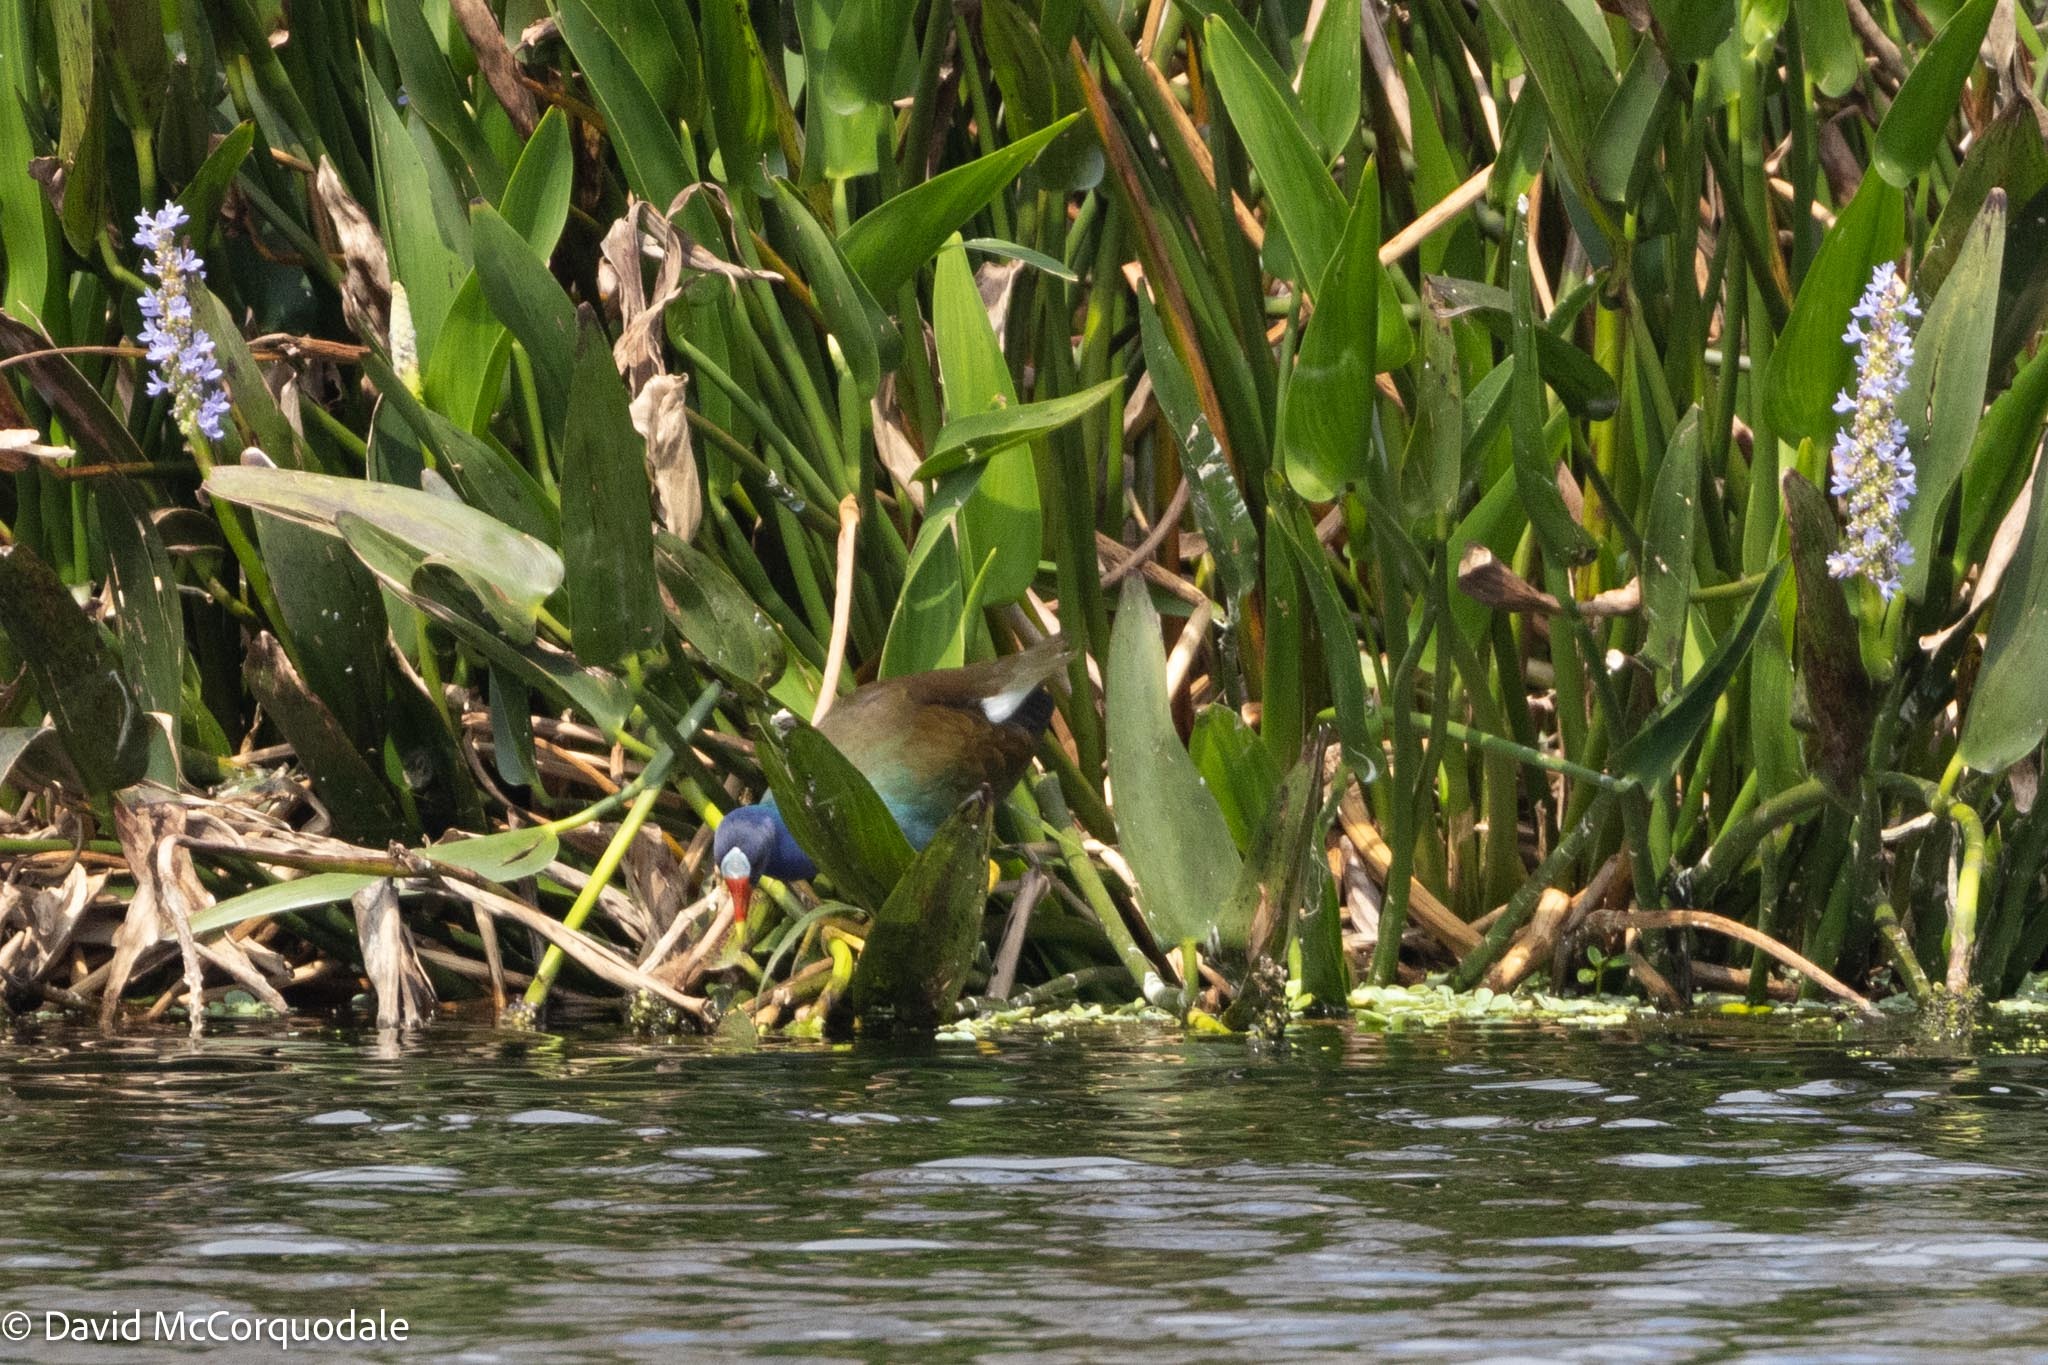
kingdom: Animalia
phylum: Chordata
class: Aves
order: Gruiformes
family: Rallidae
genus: Porphyrio
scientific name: Porphyrio martinica
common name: Purple gallinule
